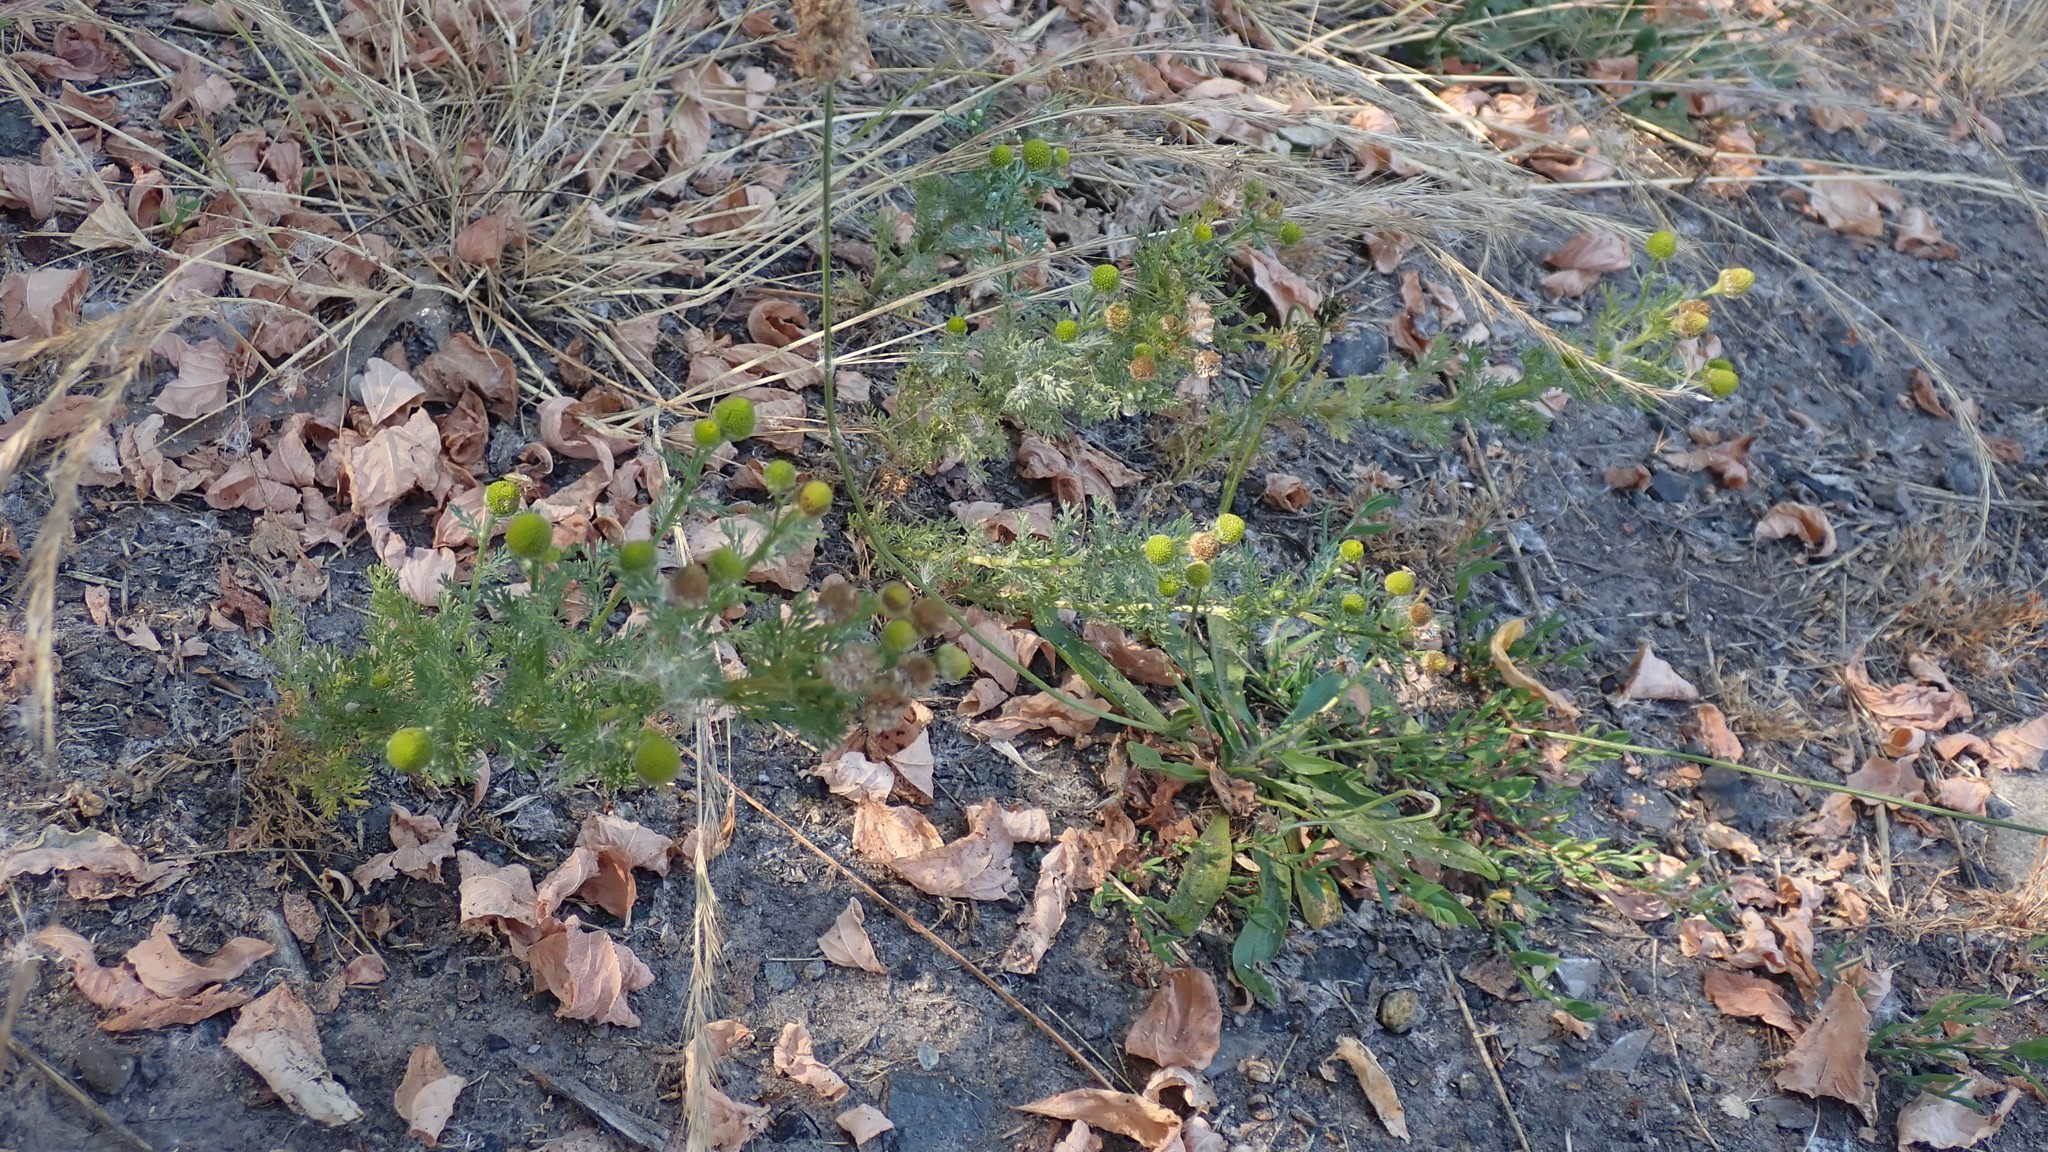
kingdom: Plantae
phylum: Tracheophyta
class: Magnoliopsida
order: Asterales
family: Asteraceae
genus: Matricaria
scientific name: Matricaria discoidea
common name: Disc mayweed
